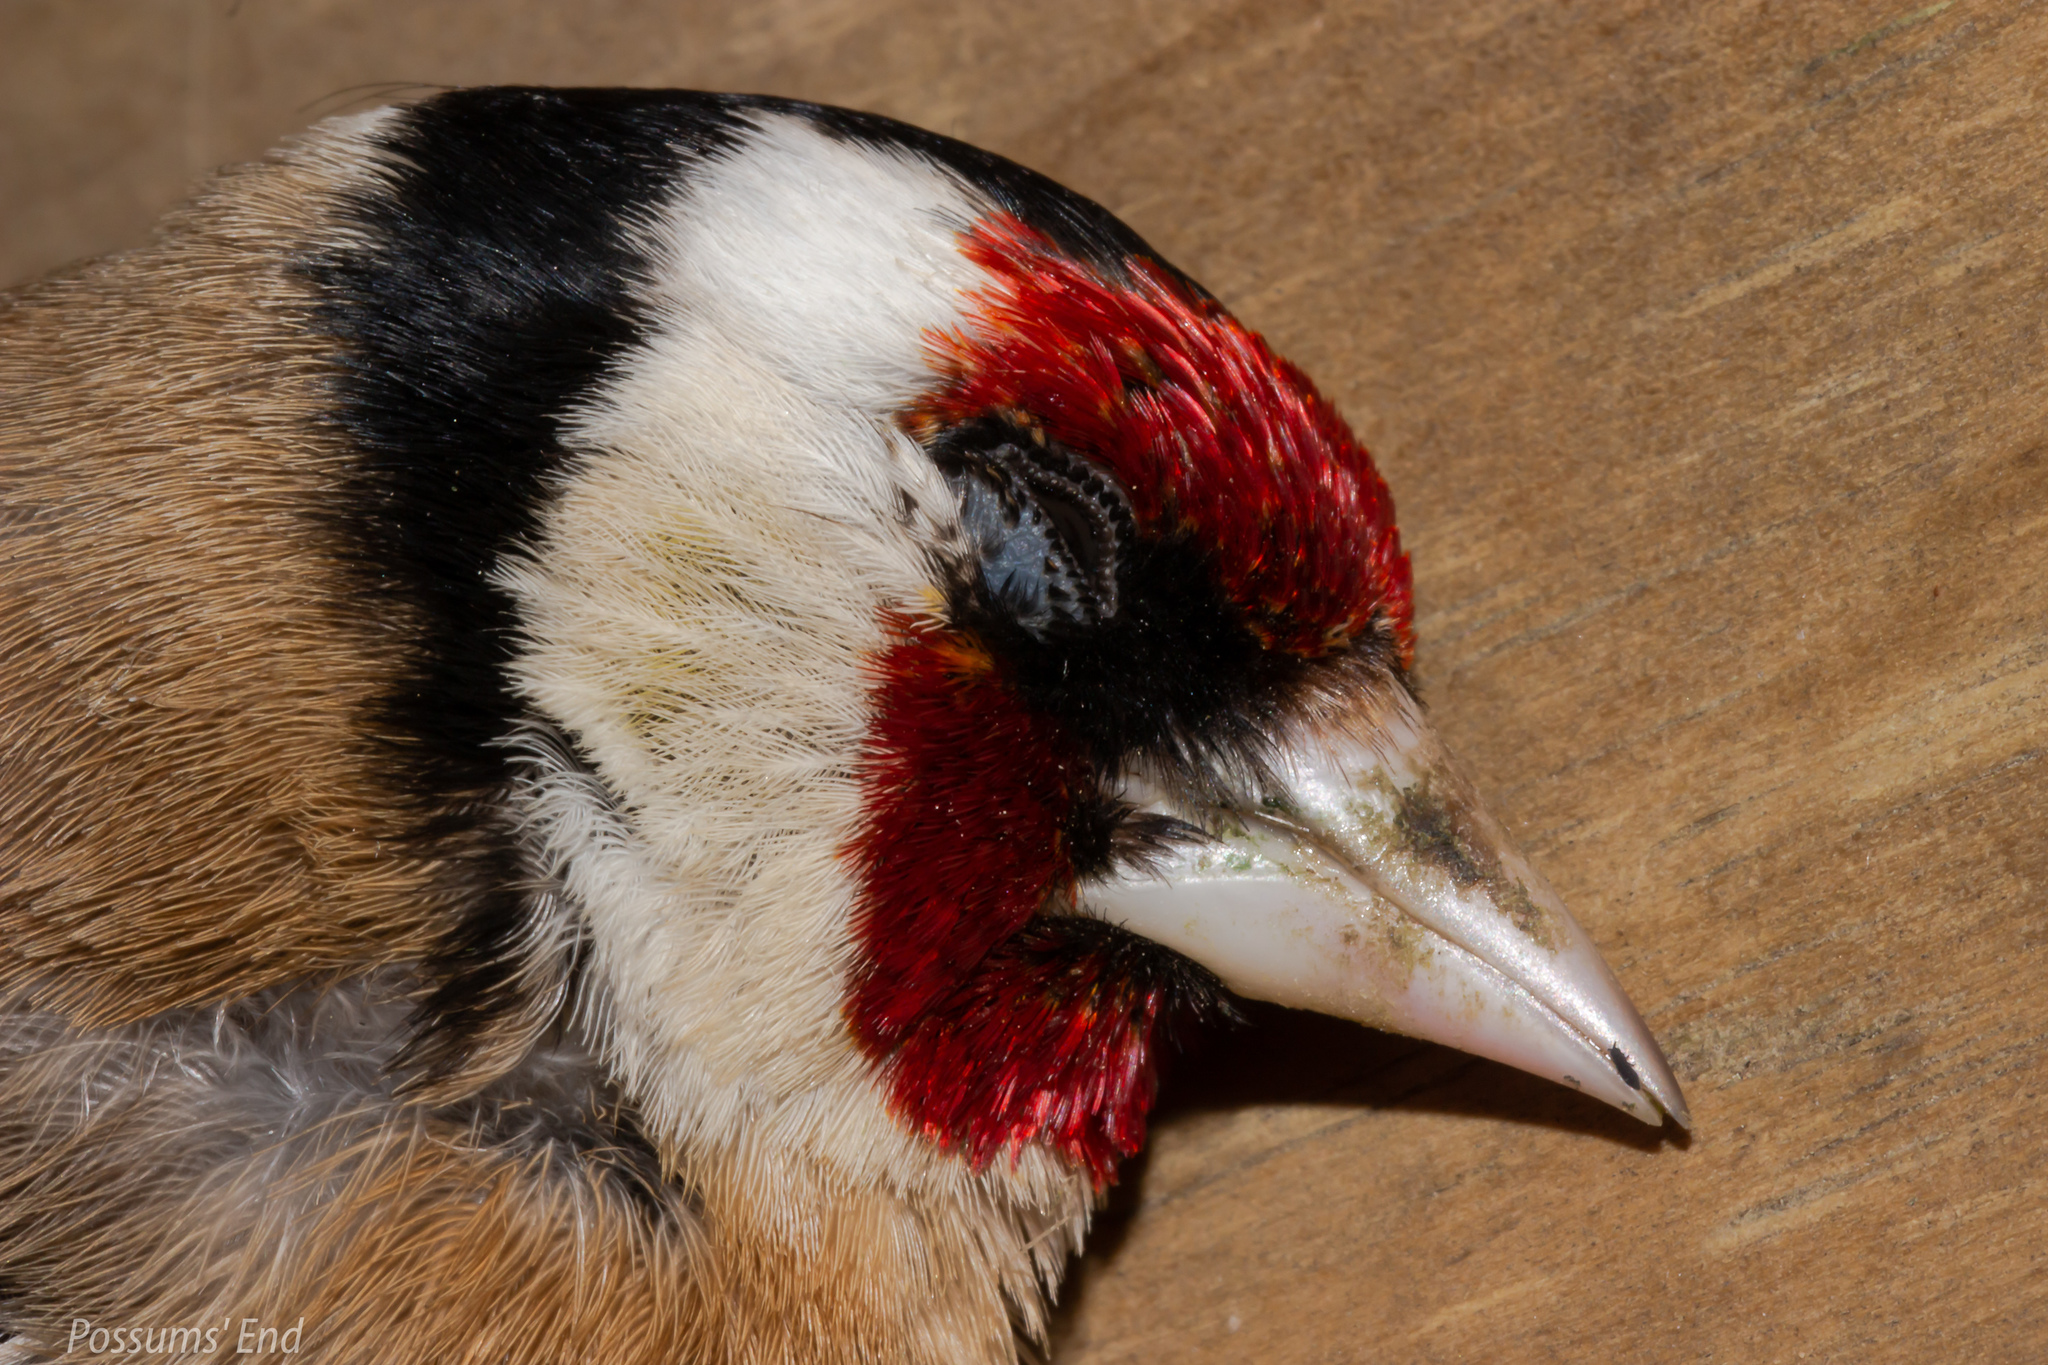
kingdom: Animalia
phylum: Chordata
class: Aves
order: Passeriformes
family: Fringillidae
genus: Carduelis
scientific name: Carduelis carduelis
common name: European goldfinch
